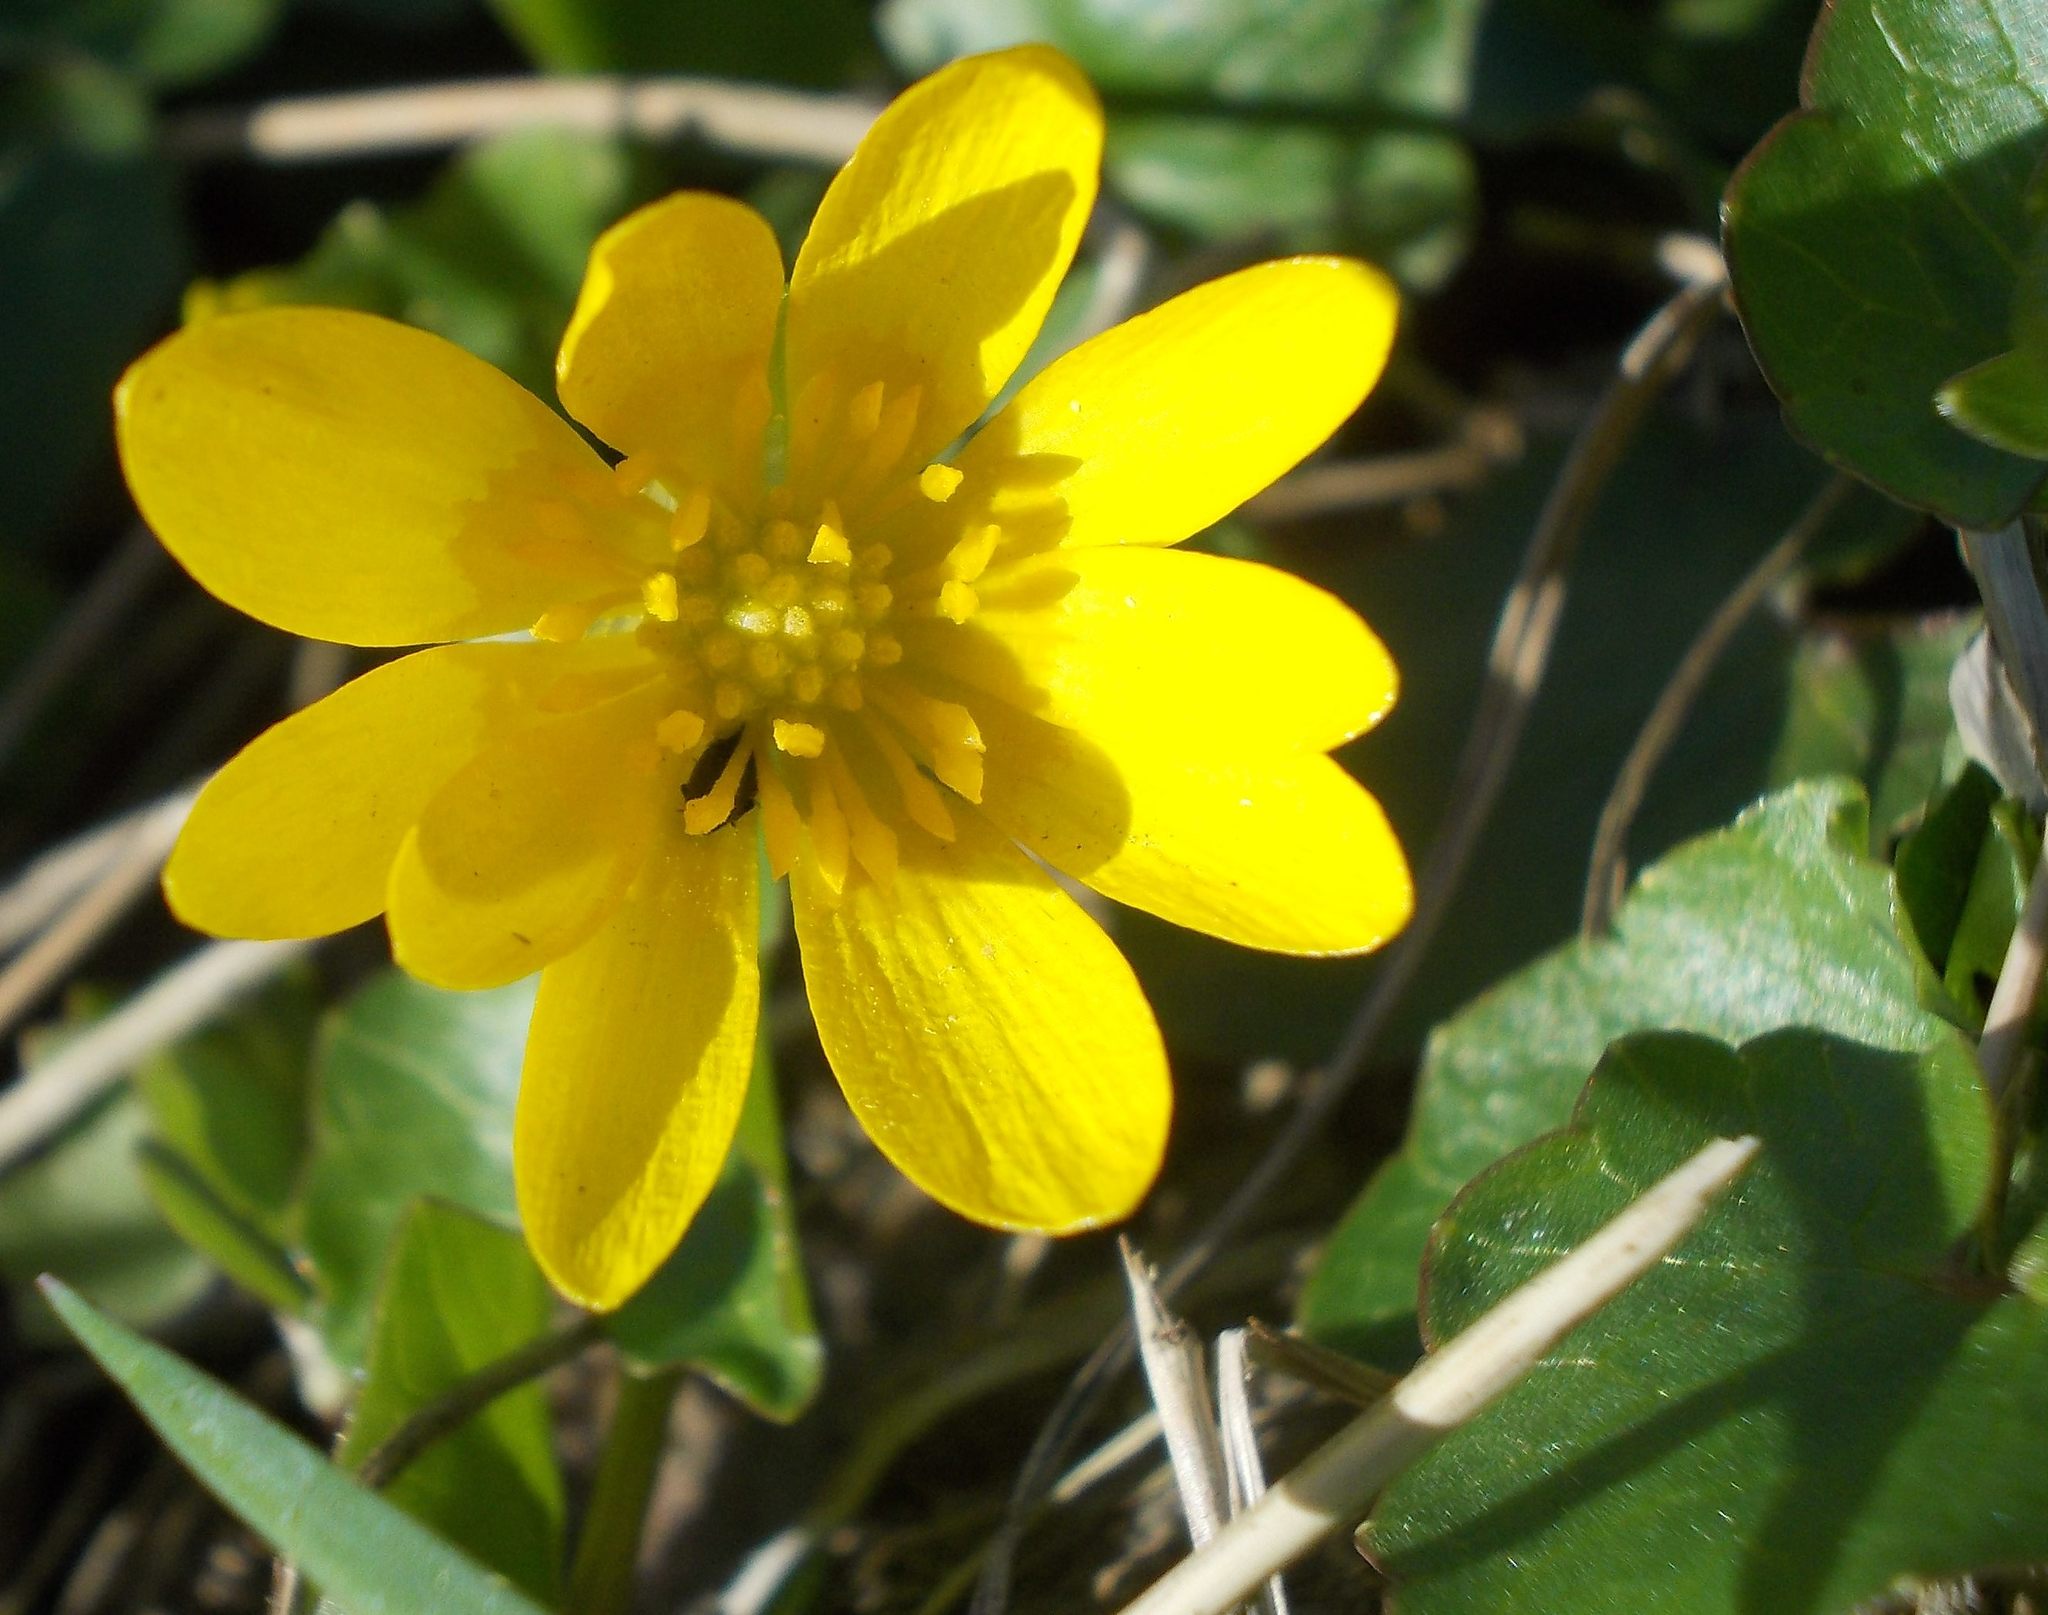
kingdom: Plantae
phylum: Tracheophyta
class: Magnoliopsida
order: Ranunculales
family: Ranunculaceae
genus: Ficaria
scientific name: Ficaria verna
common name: Lesser celandine
